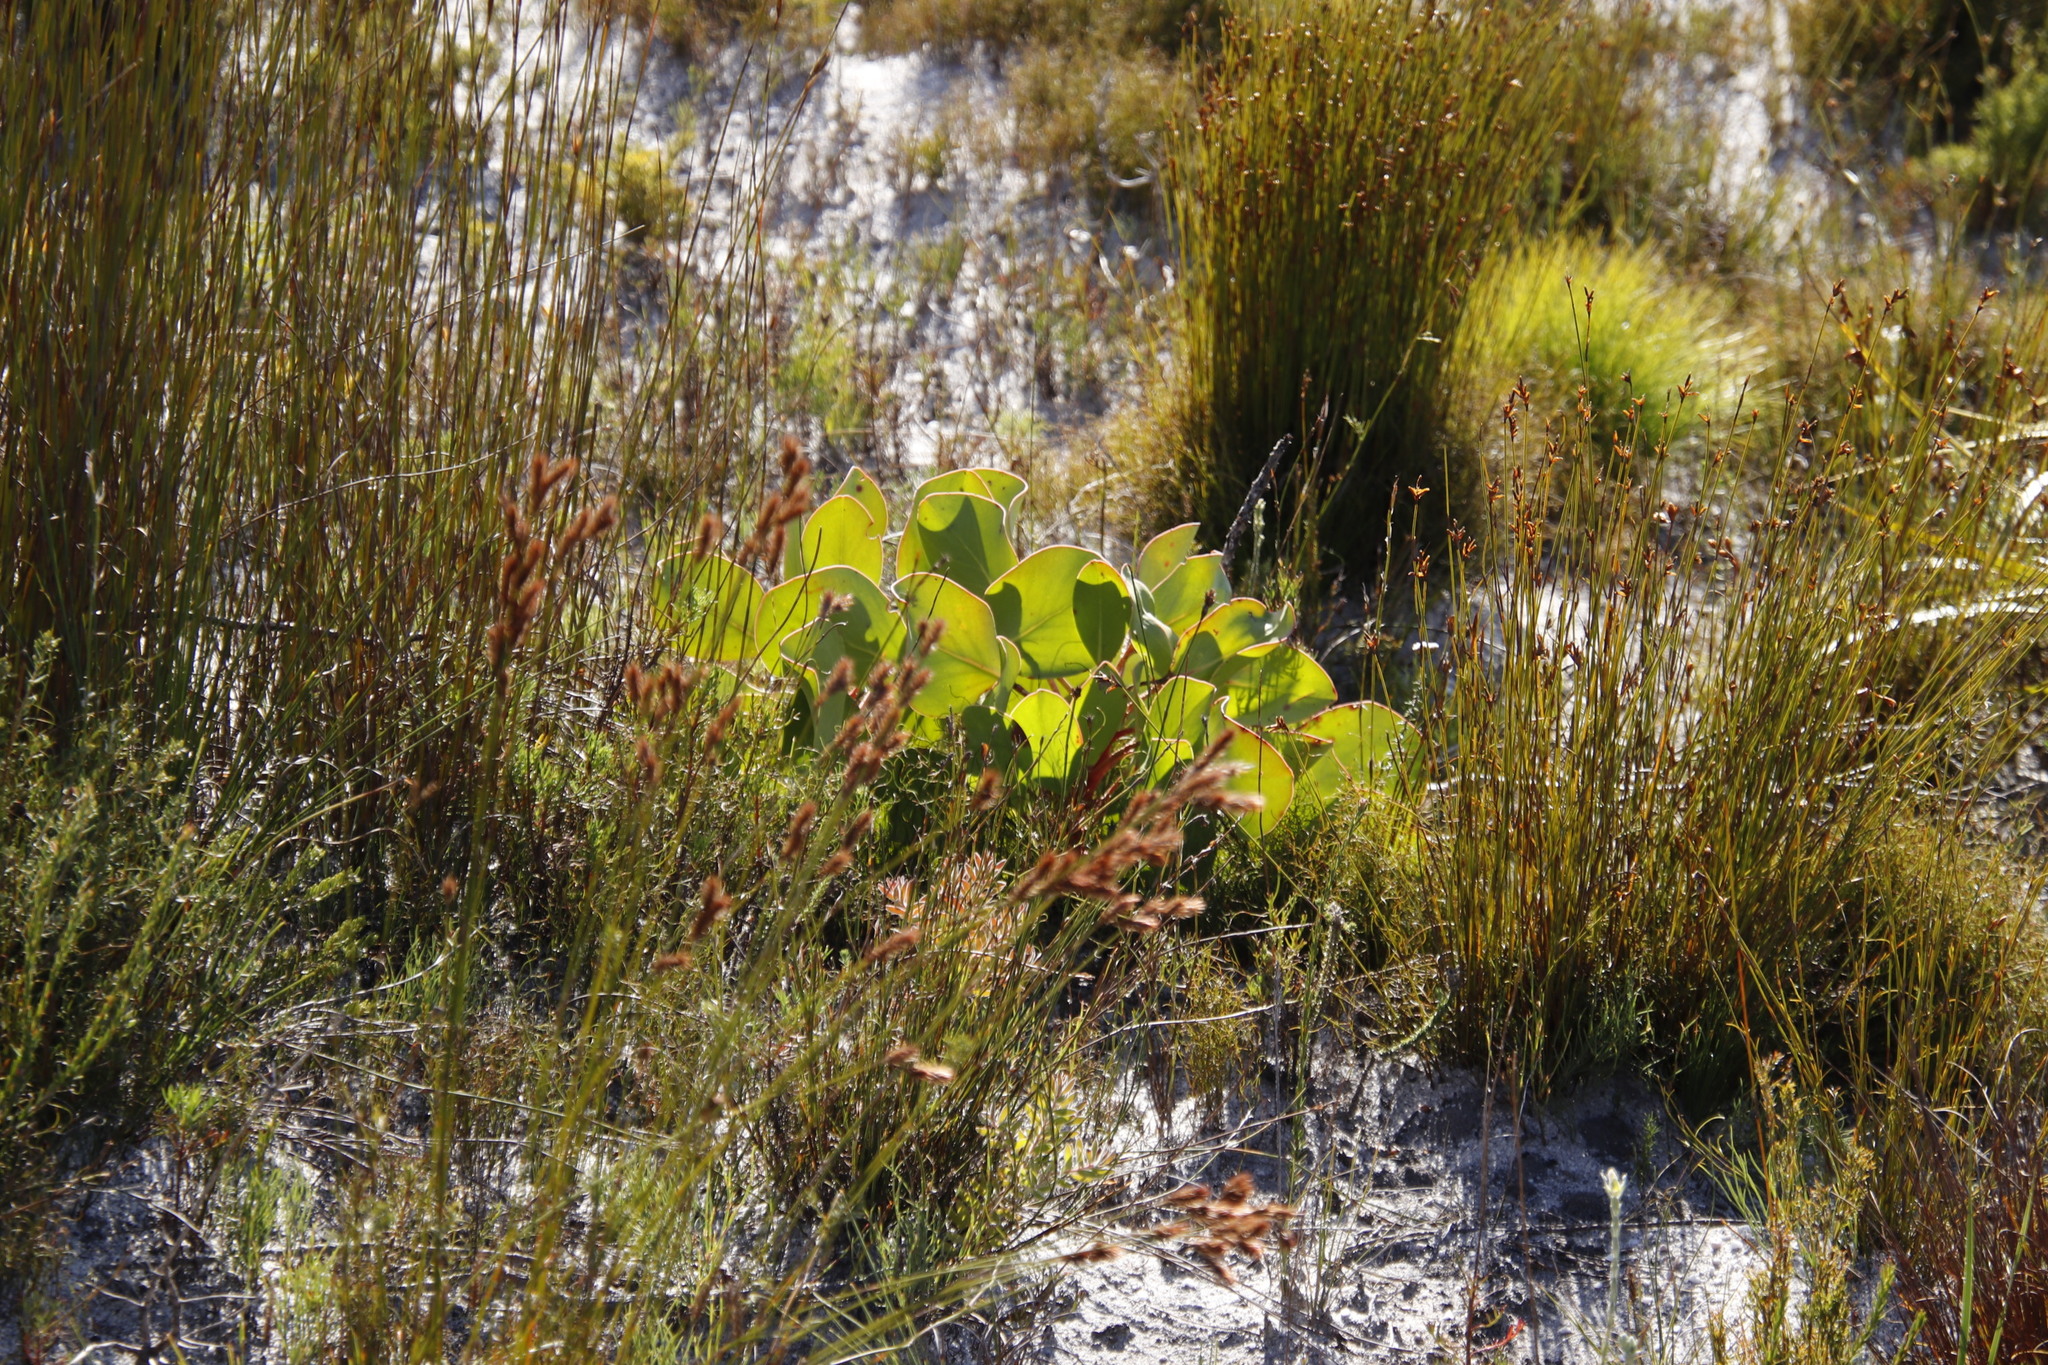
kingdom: Plantae
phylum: Tracheophyta
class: Magnoliopsida
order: Proteales
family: Proteaceae
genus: Protea
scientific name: Protea cynaroides
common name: King protea
